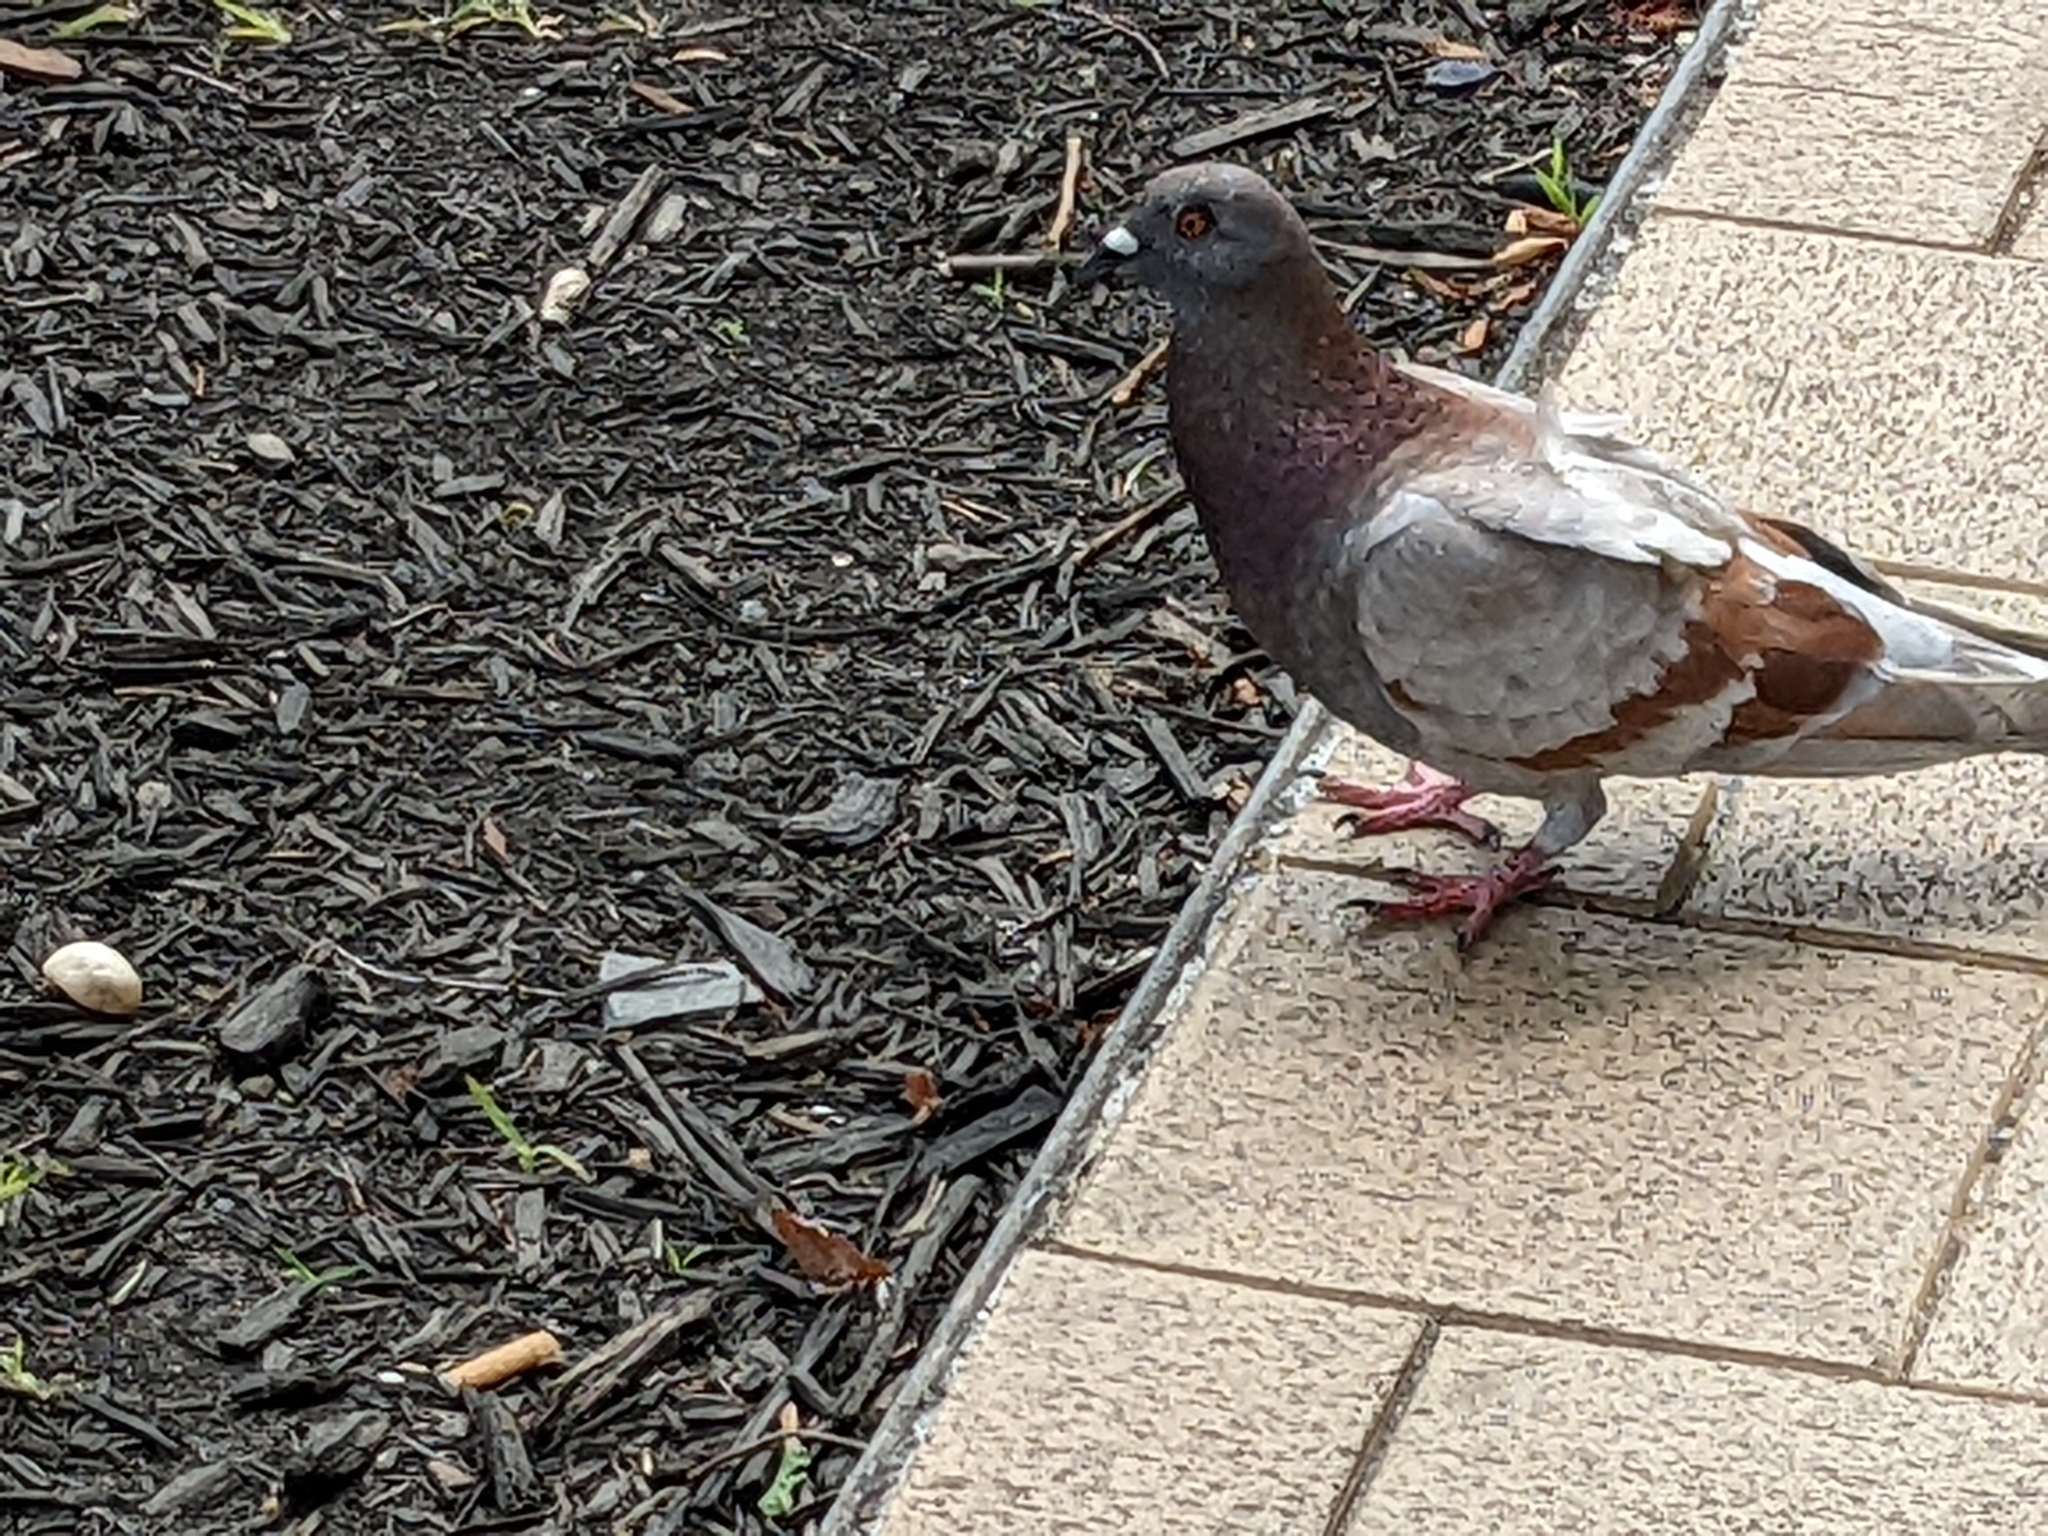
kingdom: Animalia
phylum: Chordata
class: Aves
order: Columbiformes
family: Columbidae
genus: Columba
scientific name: Columba livia
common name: Rock pigeon
